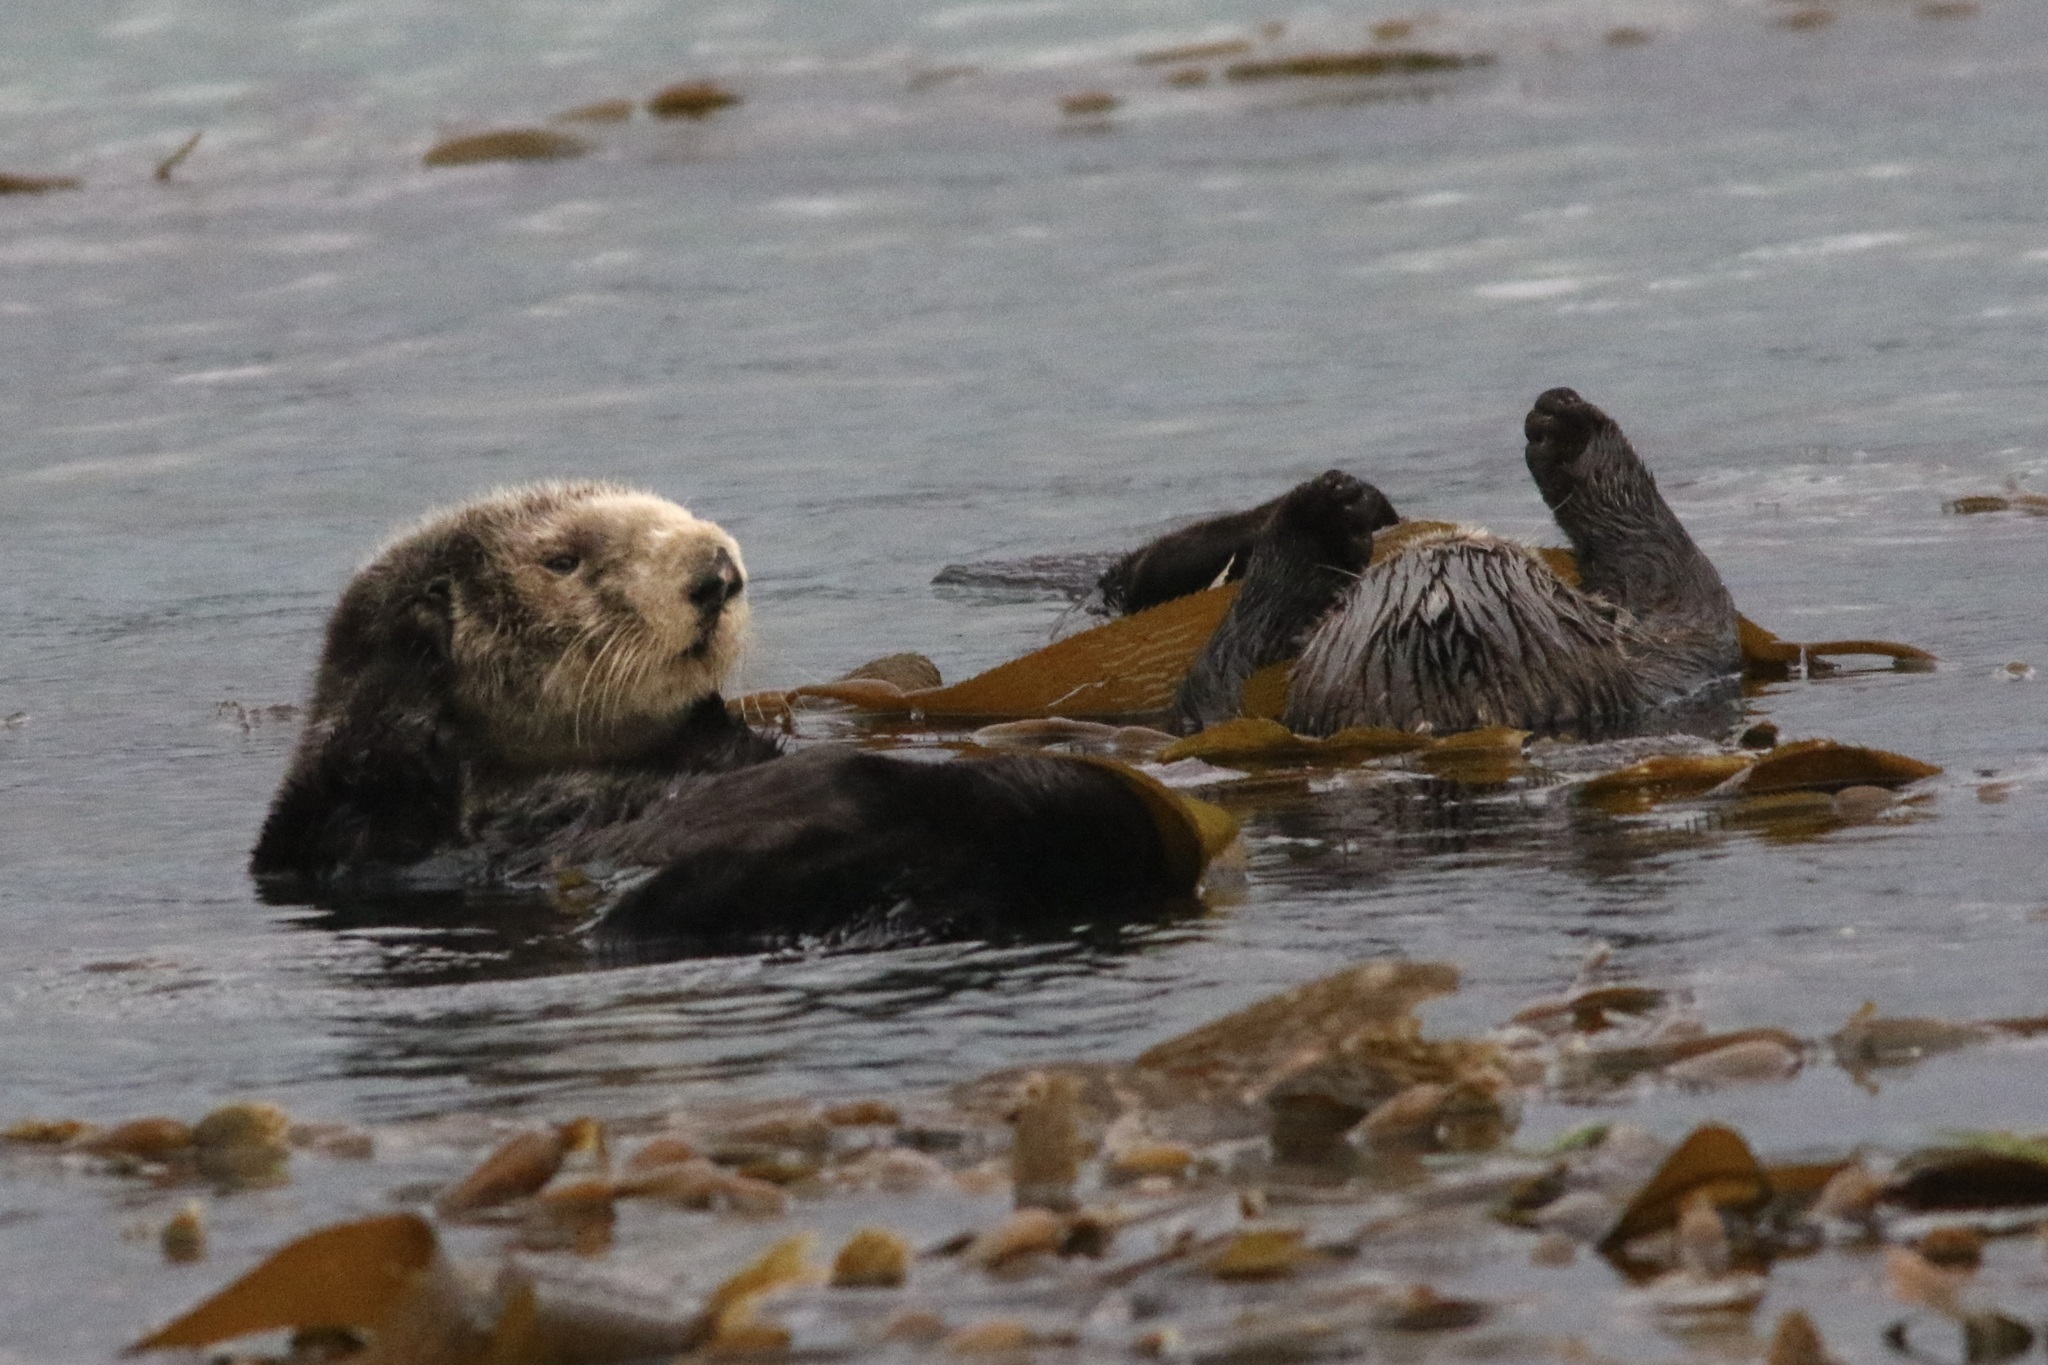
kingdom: Animalia
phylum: Chordata
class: Mammalia
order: Carnivora
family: Mustelidae
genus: Enhydra
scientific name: Enhydra lutris
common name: Sea otter
